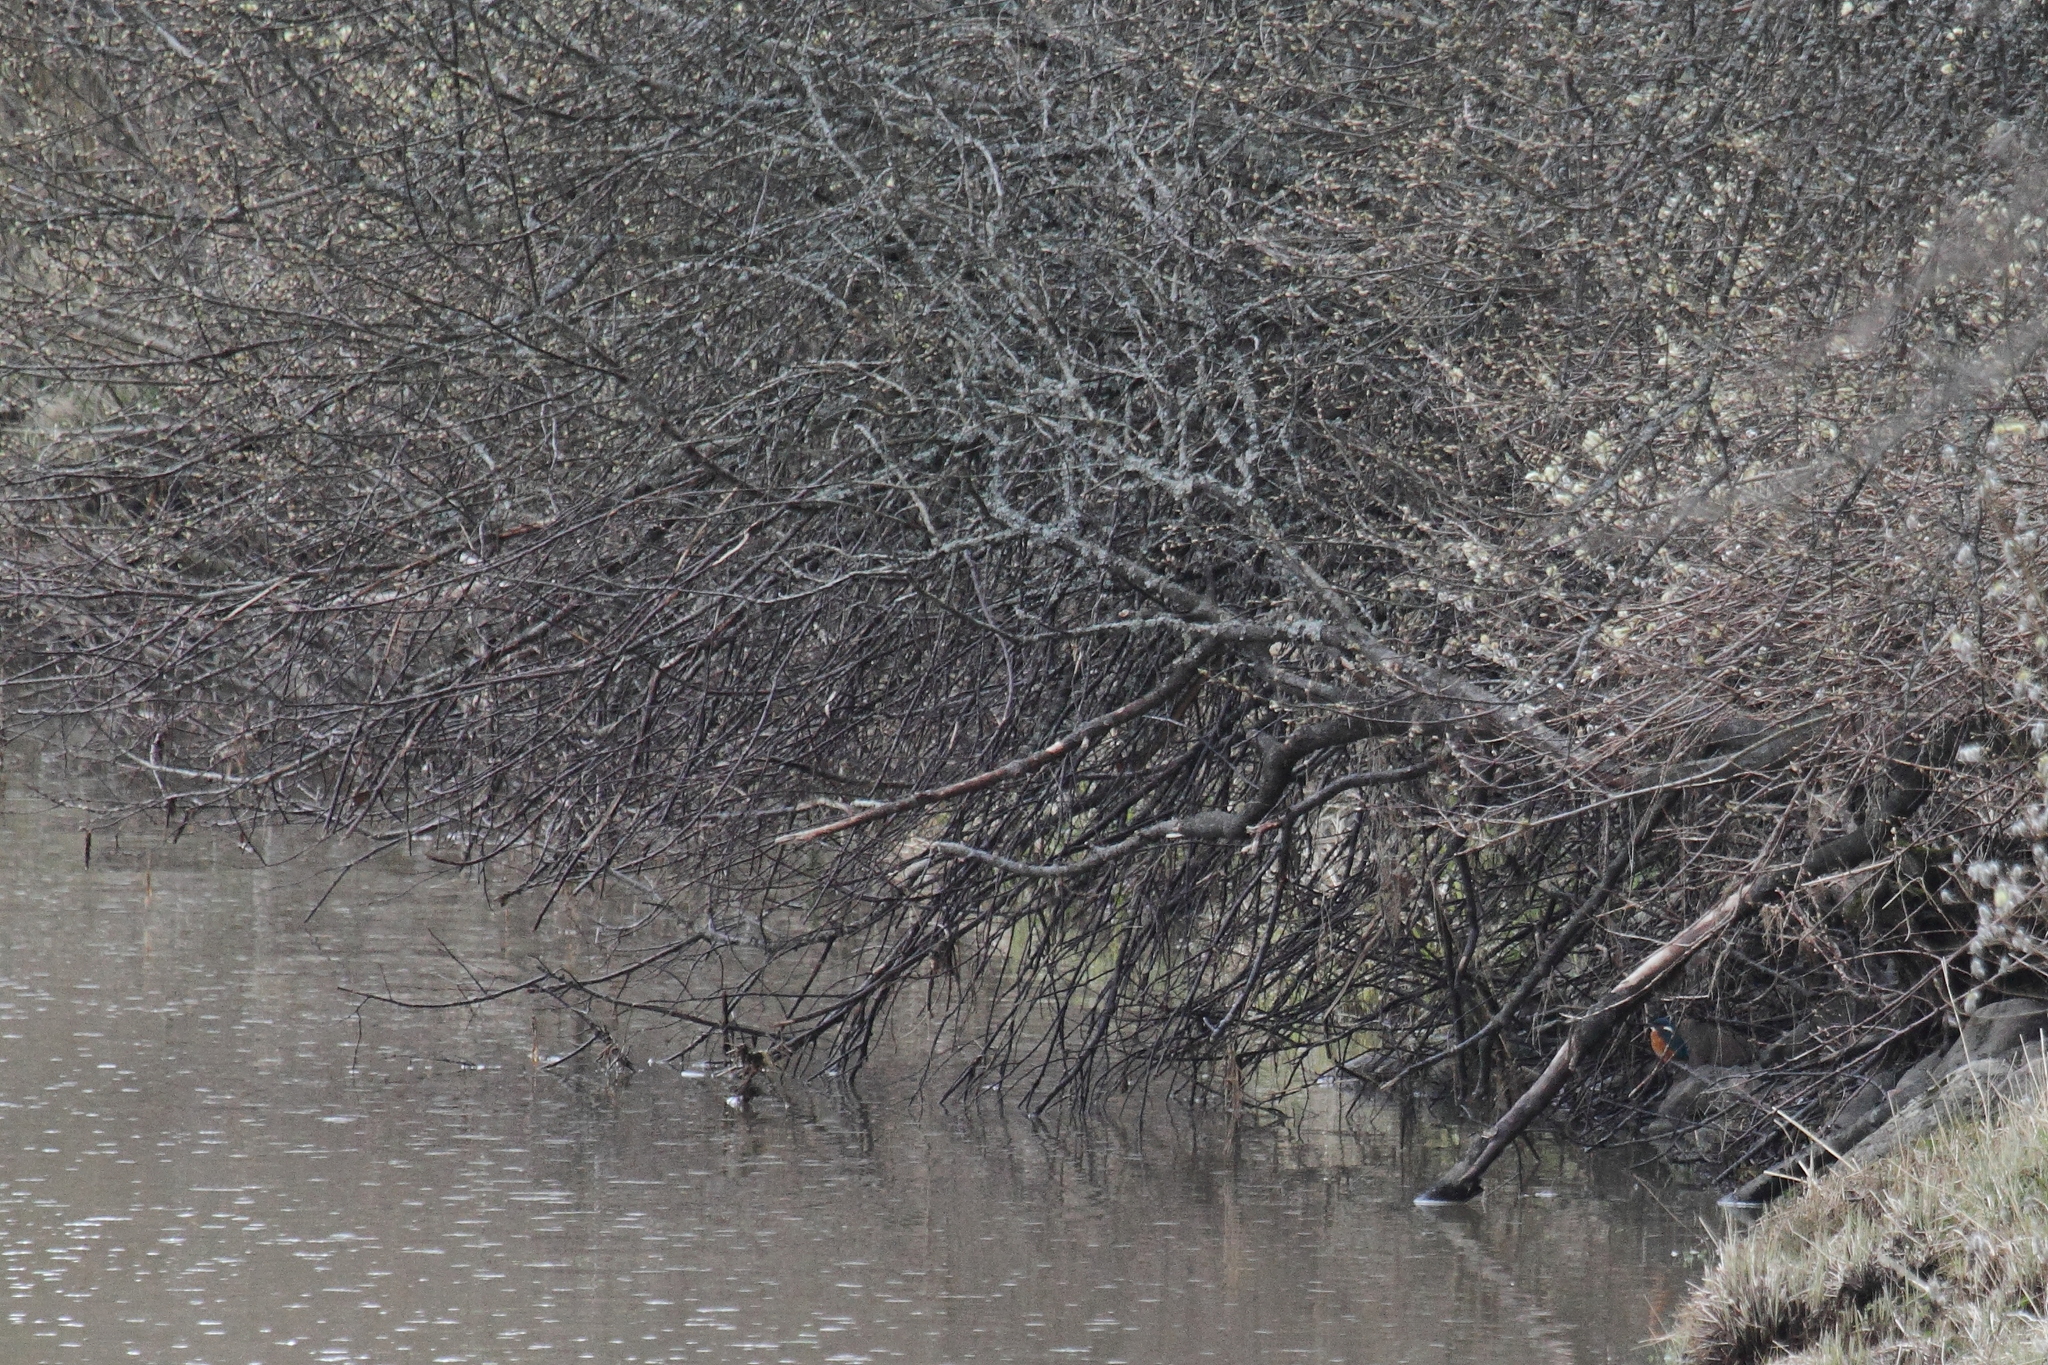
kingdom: Animalia
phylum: Chordata
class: Aves
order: Coraciiformes
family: Alcedinidae
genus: Alcedo
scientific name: Alcedo atthis
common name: Common kingfisher
